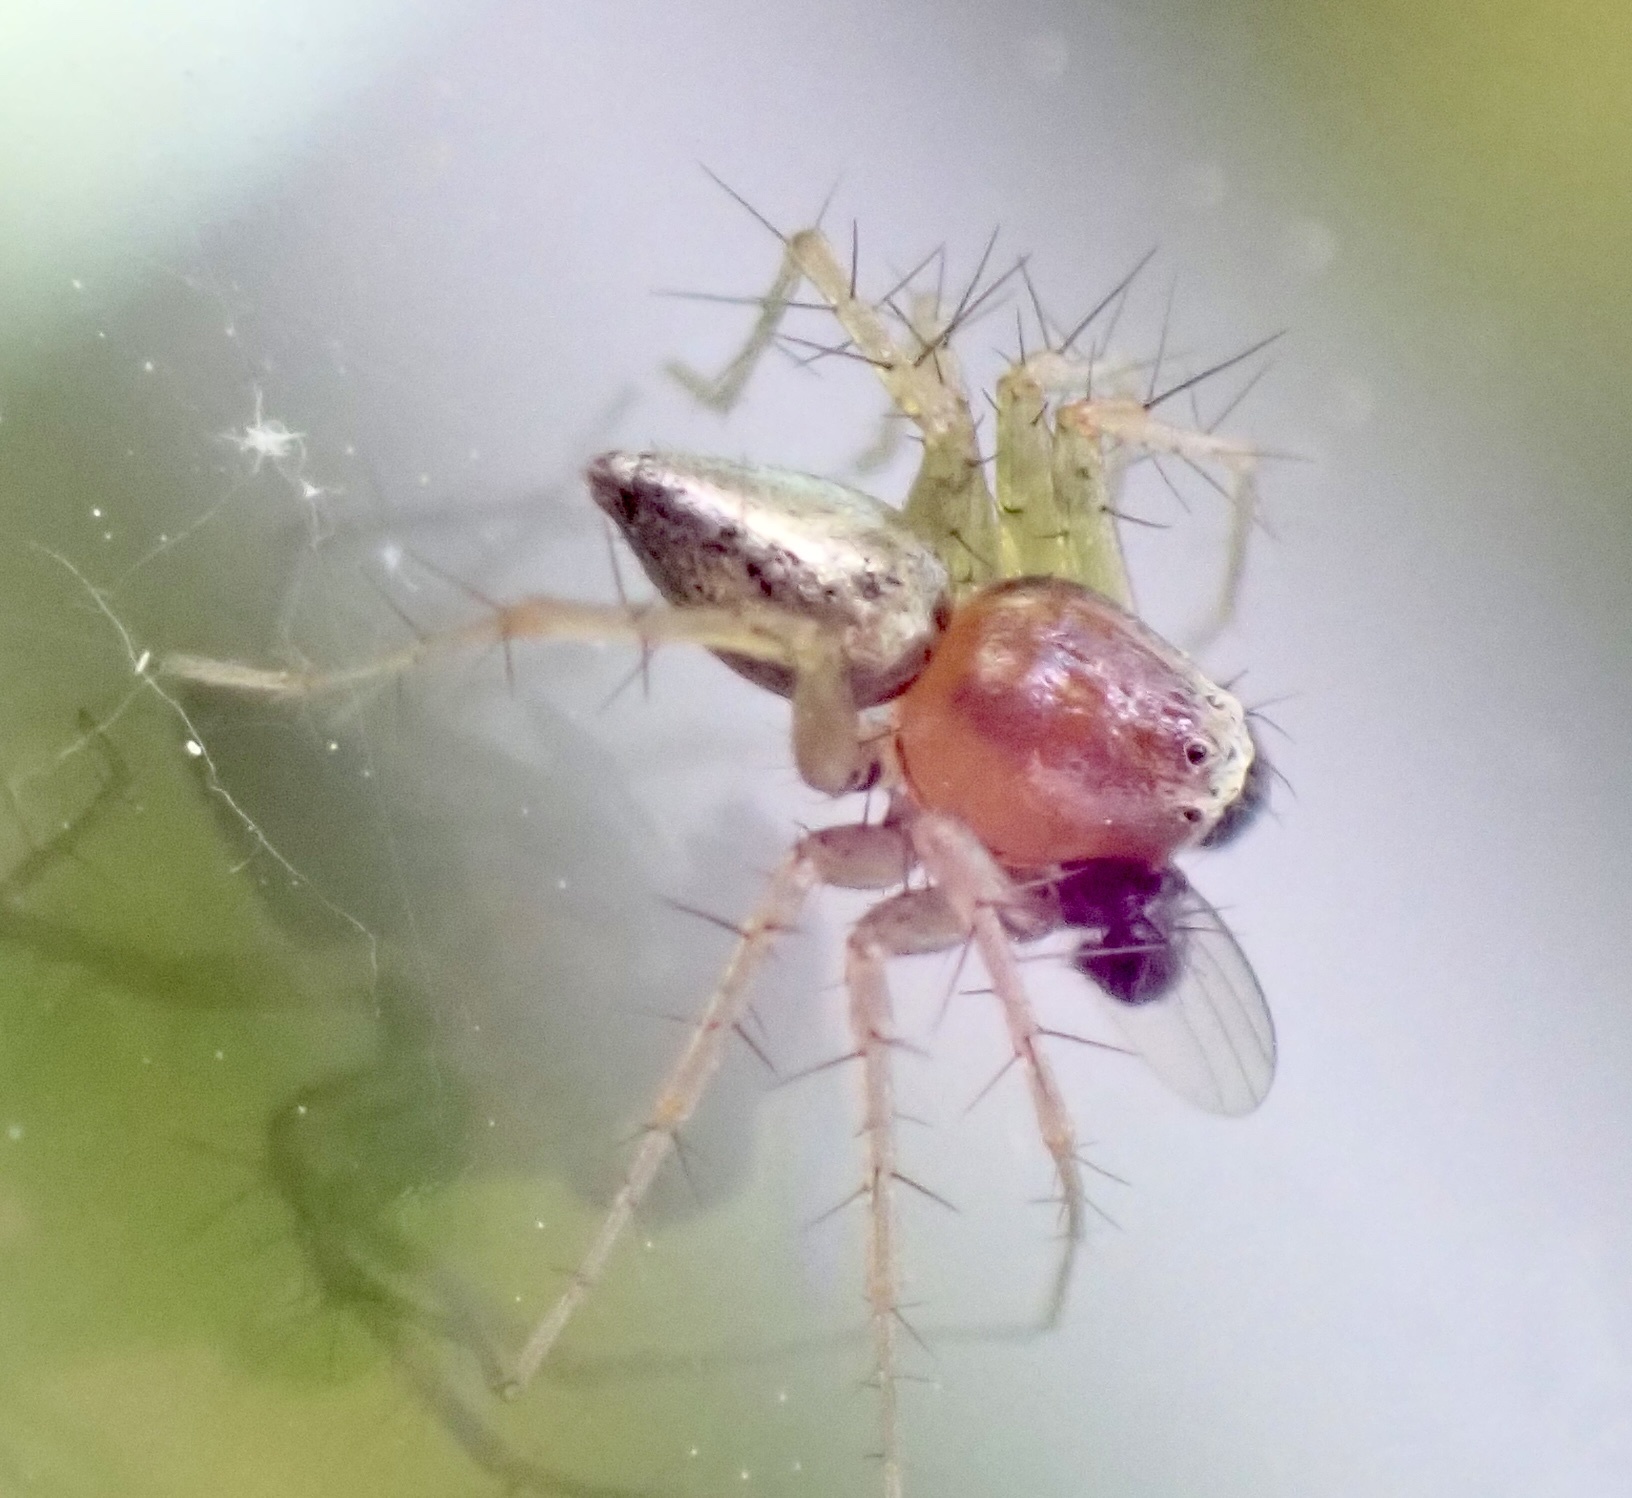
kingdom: Animalia
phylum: Arthropoda
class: Arachnida
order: Araneae
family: Oxyopidae
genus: Oxyopes
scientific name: Oxyopes salticus
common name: Lynx spiders
